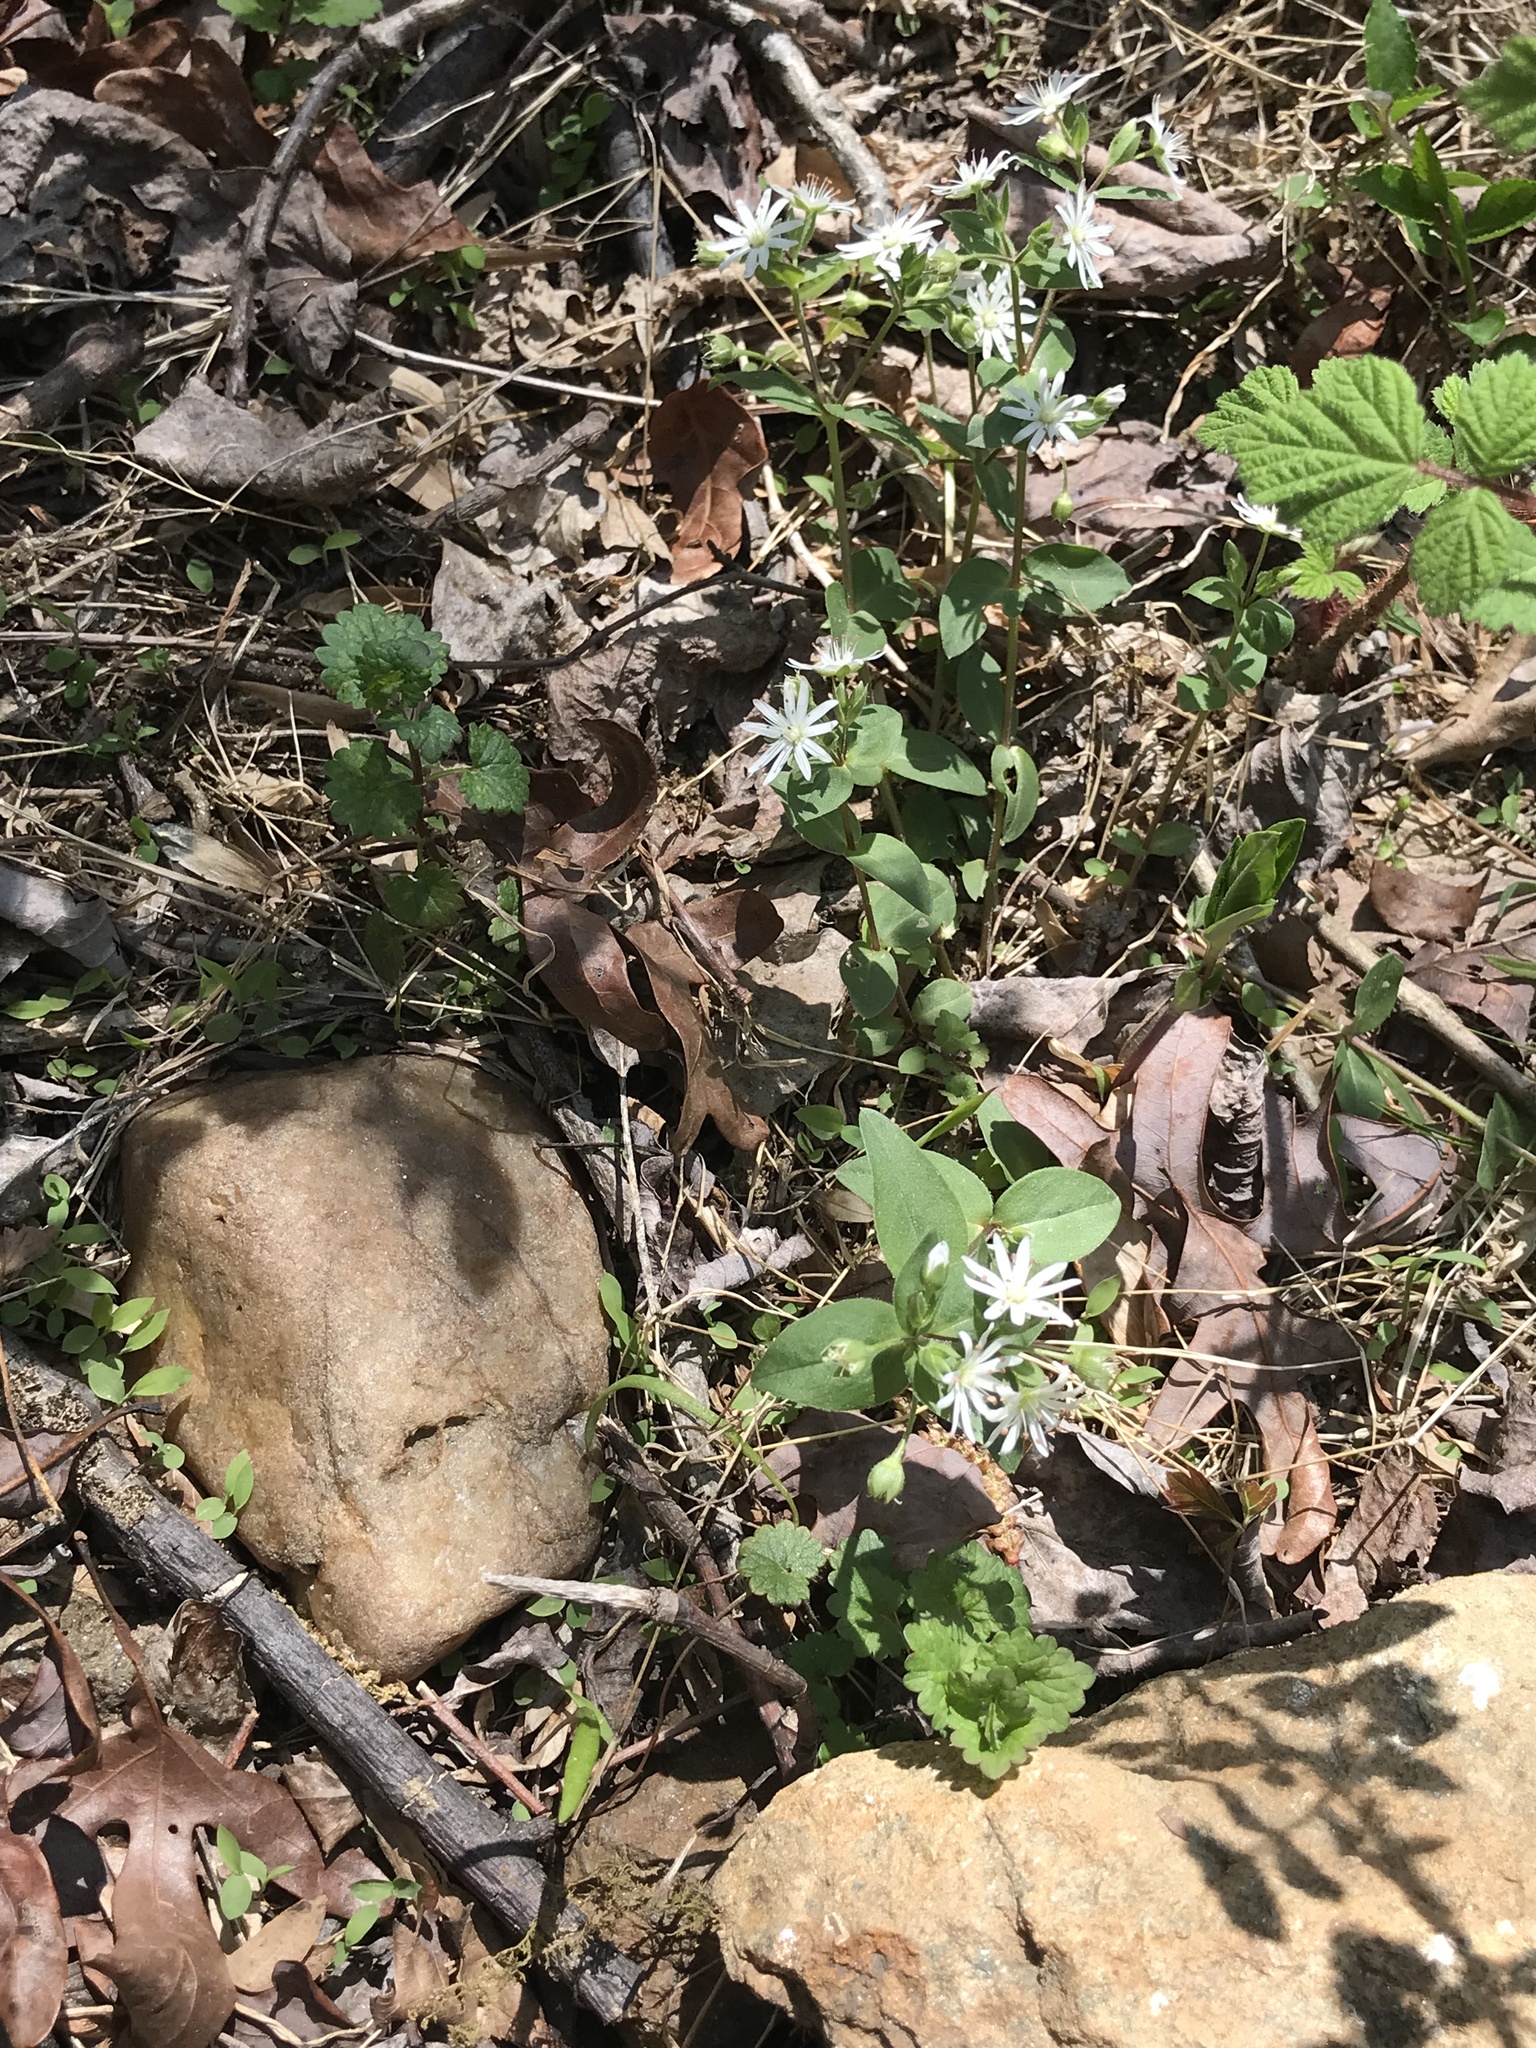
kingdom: Plantae
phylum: Tracheophyta
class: Magnoliopsida
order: Caryophyllales
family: Caryophyllaceae
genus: Stellaria
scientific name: Stellaria pubera
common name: Star chickweed
